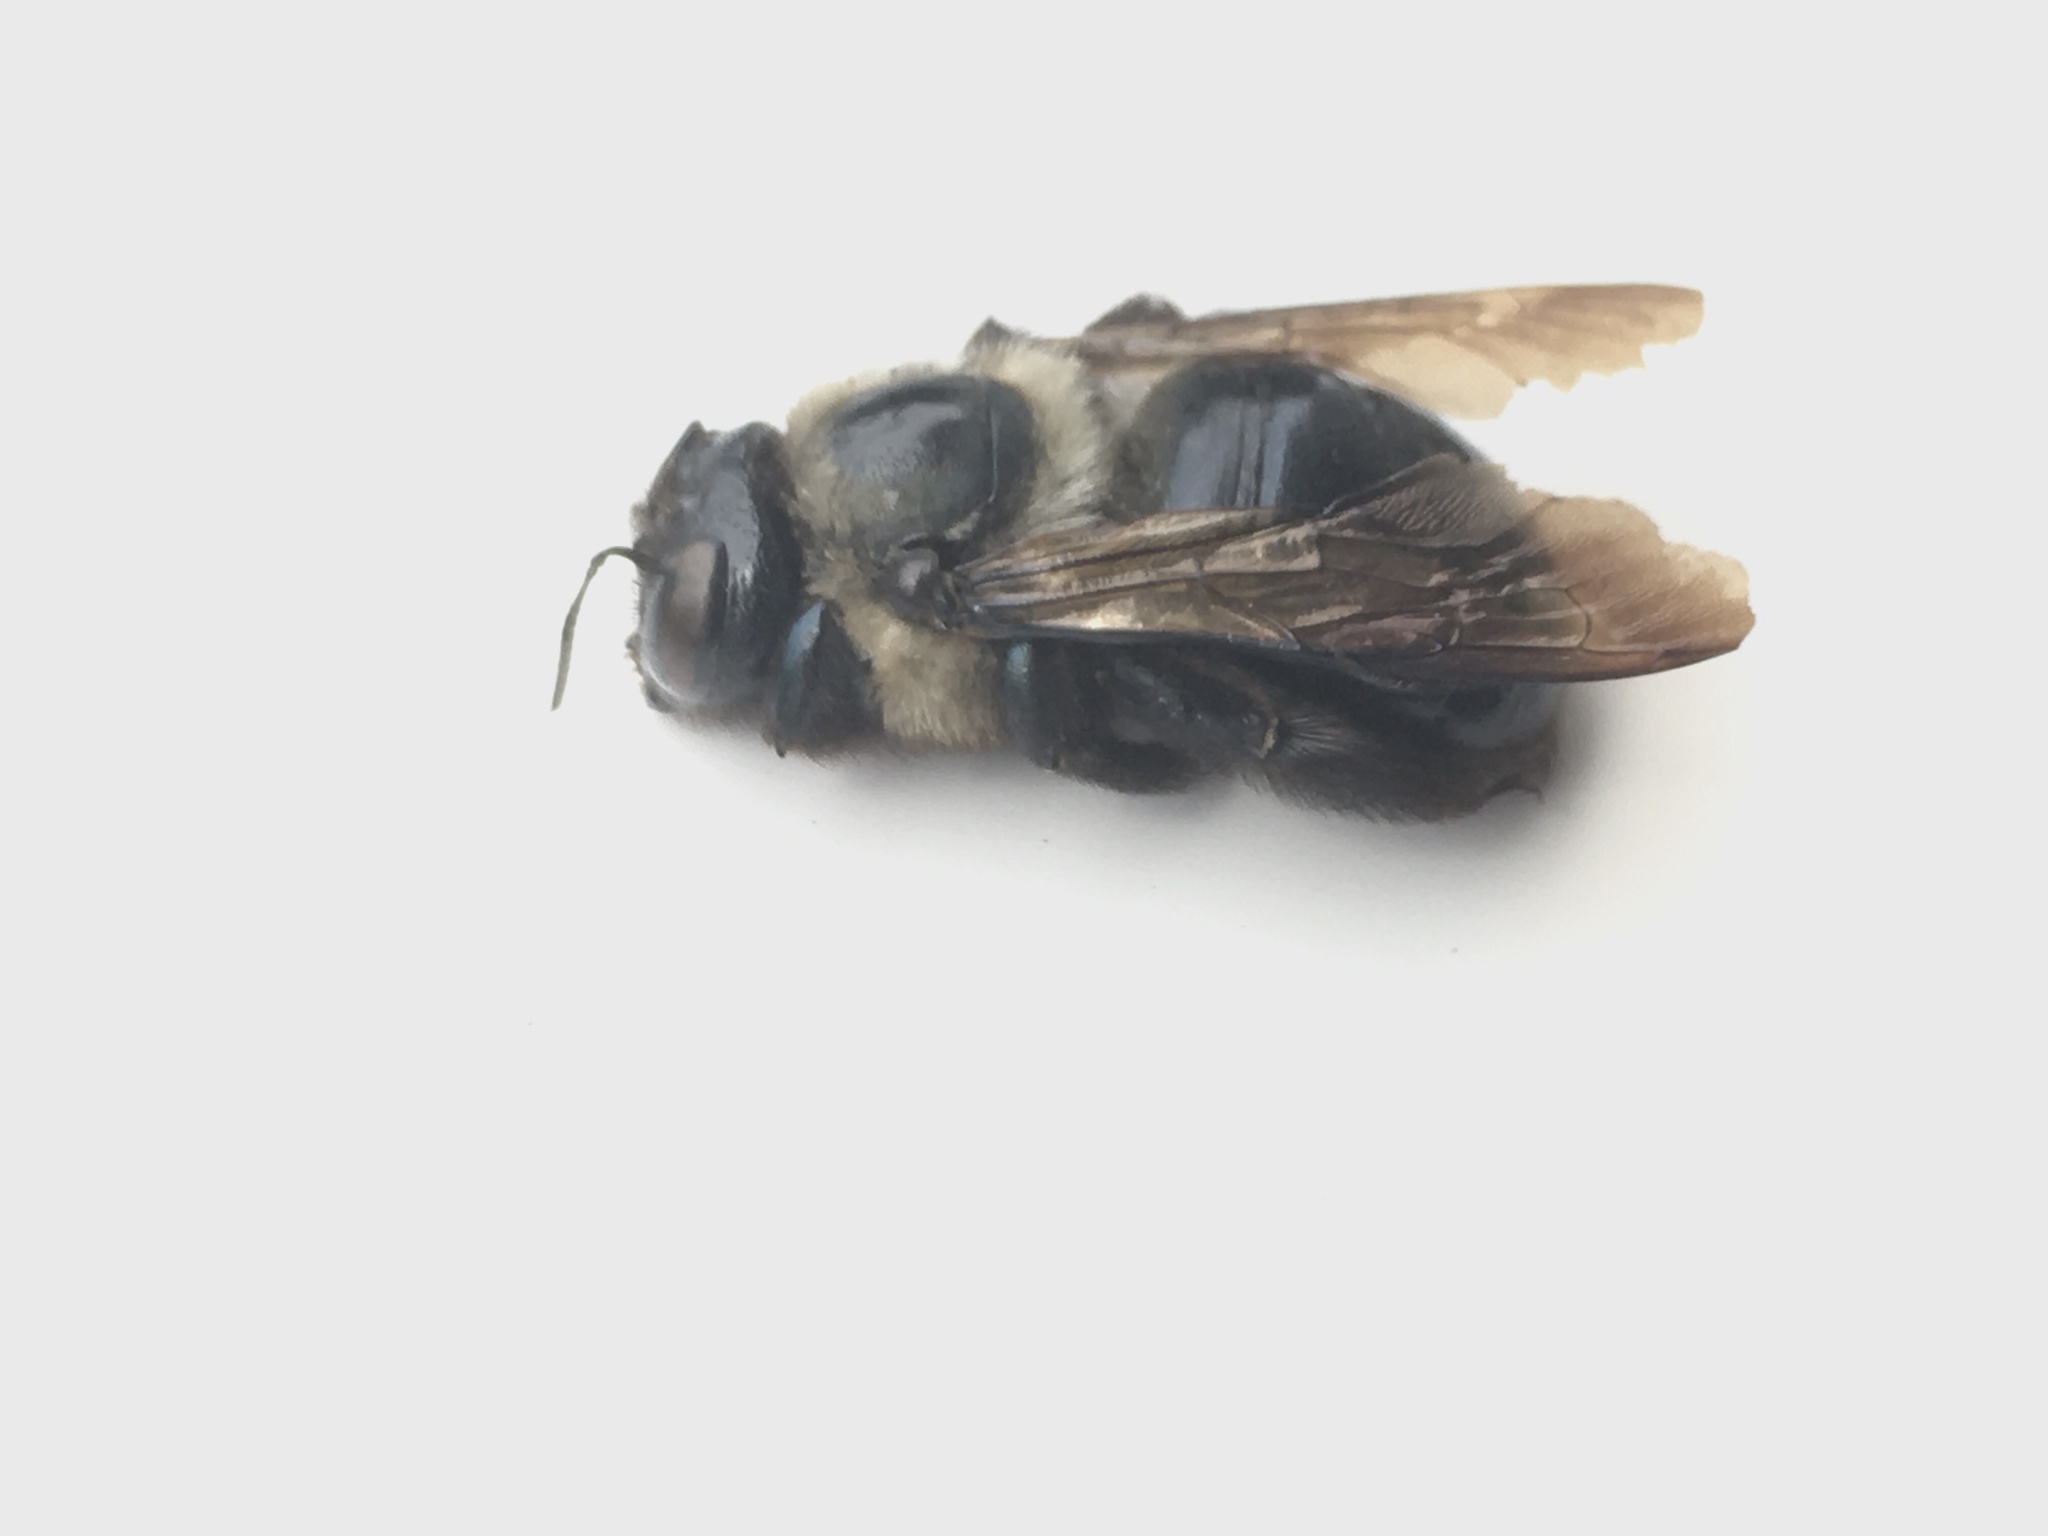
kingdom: Animalia
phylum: Arthropoda
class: Insecta
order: Hymenoptera
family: Apidae
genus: Xylocopa
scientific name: Xylocopa virginica
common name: Carpenter bee
